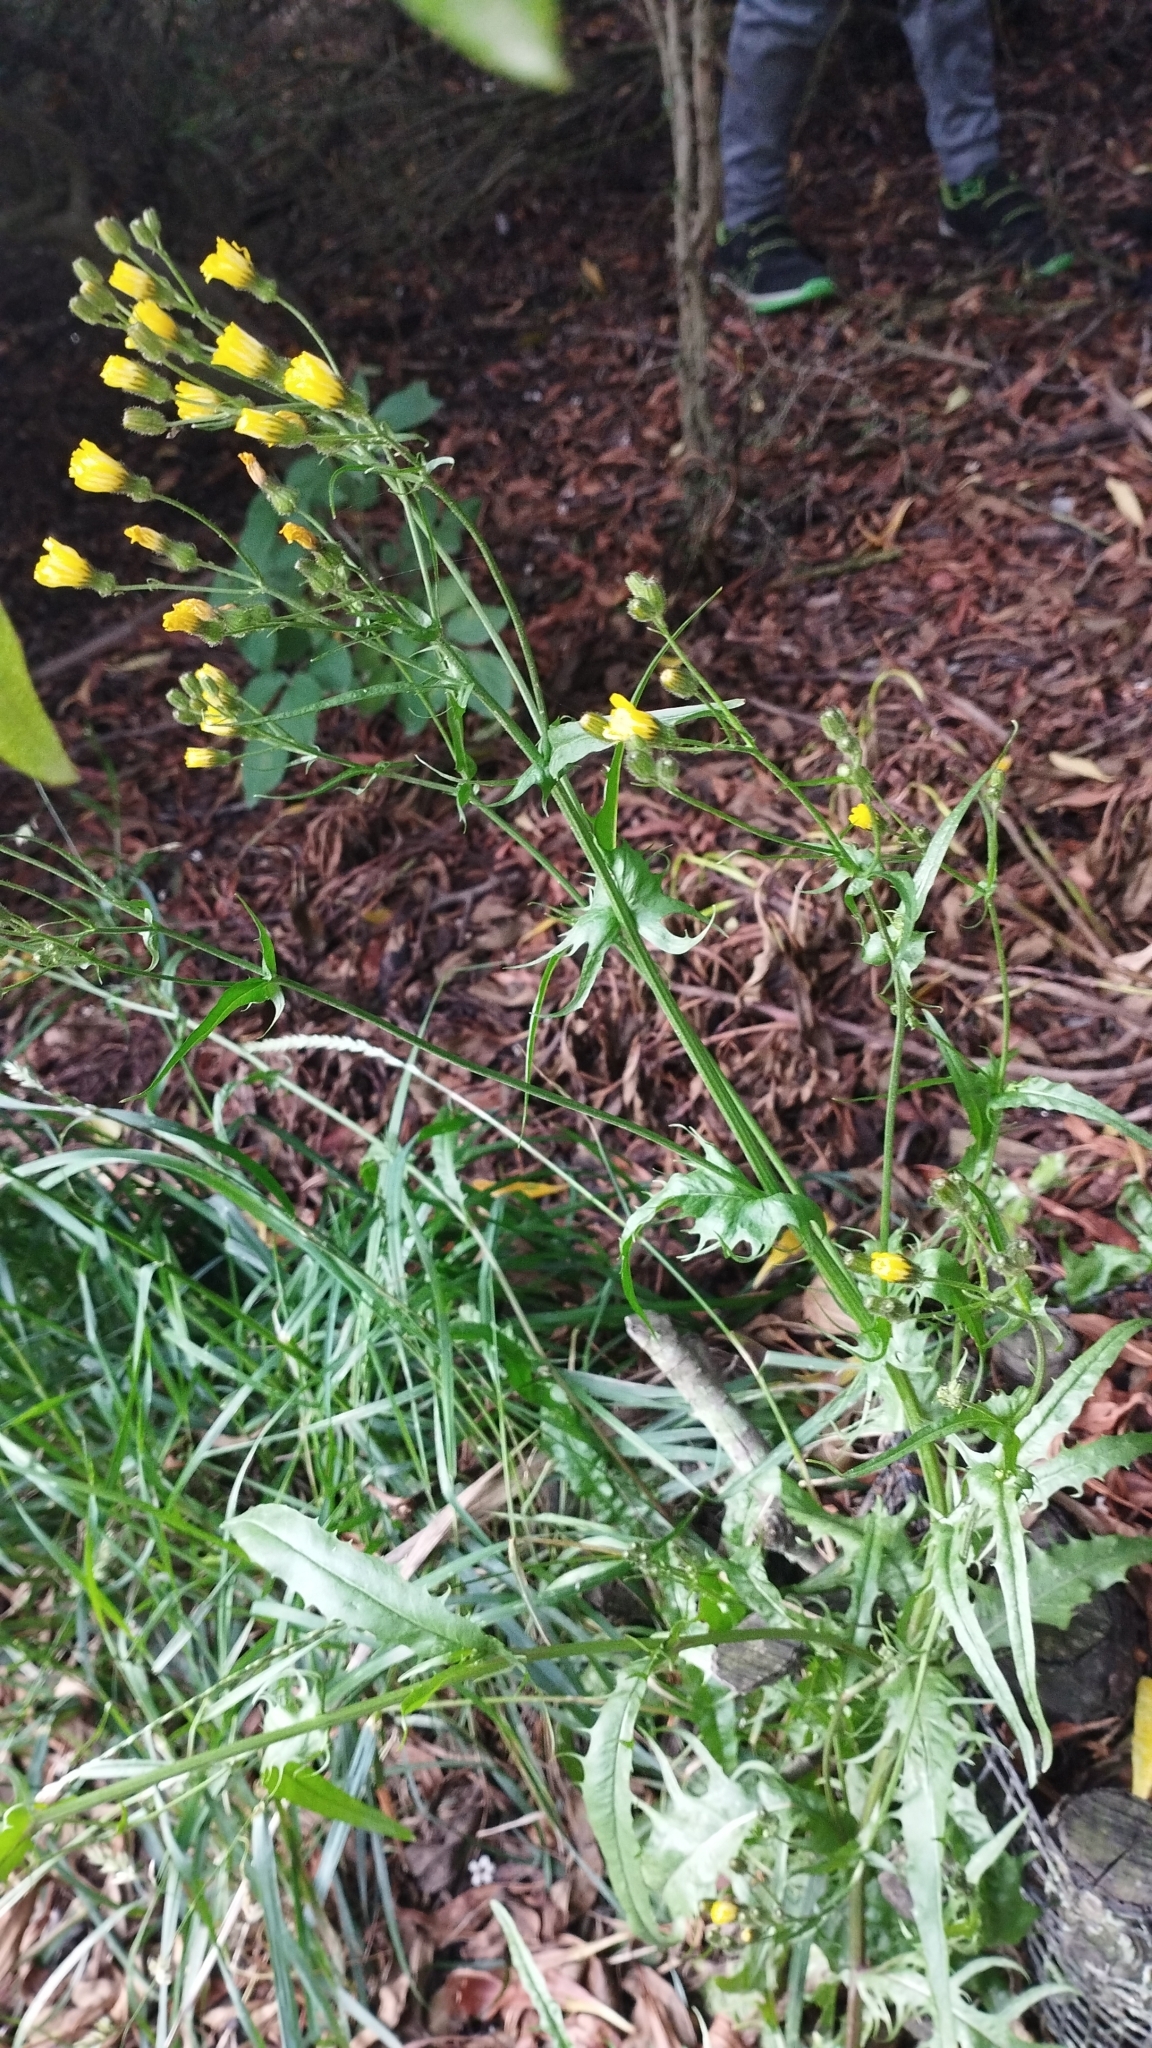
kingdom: Plantae
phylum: Tracheophyta
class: Magnoliopsida
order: Asterales
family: Asteraceae
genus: Crepis
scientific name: Crepis capillaris
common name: Smooth hawksbeard
